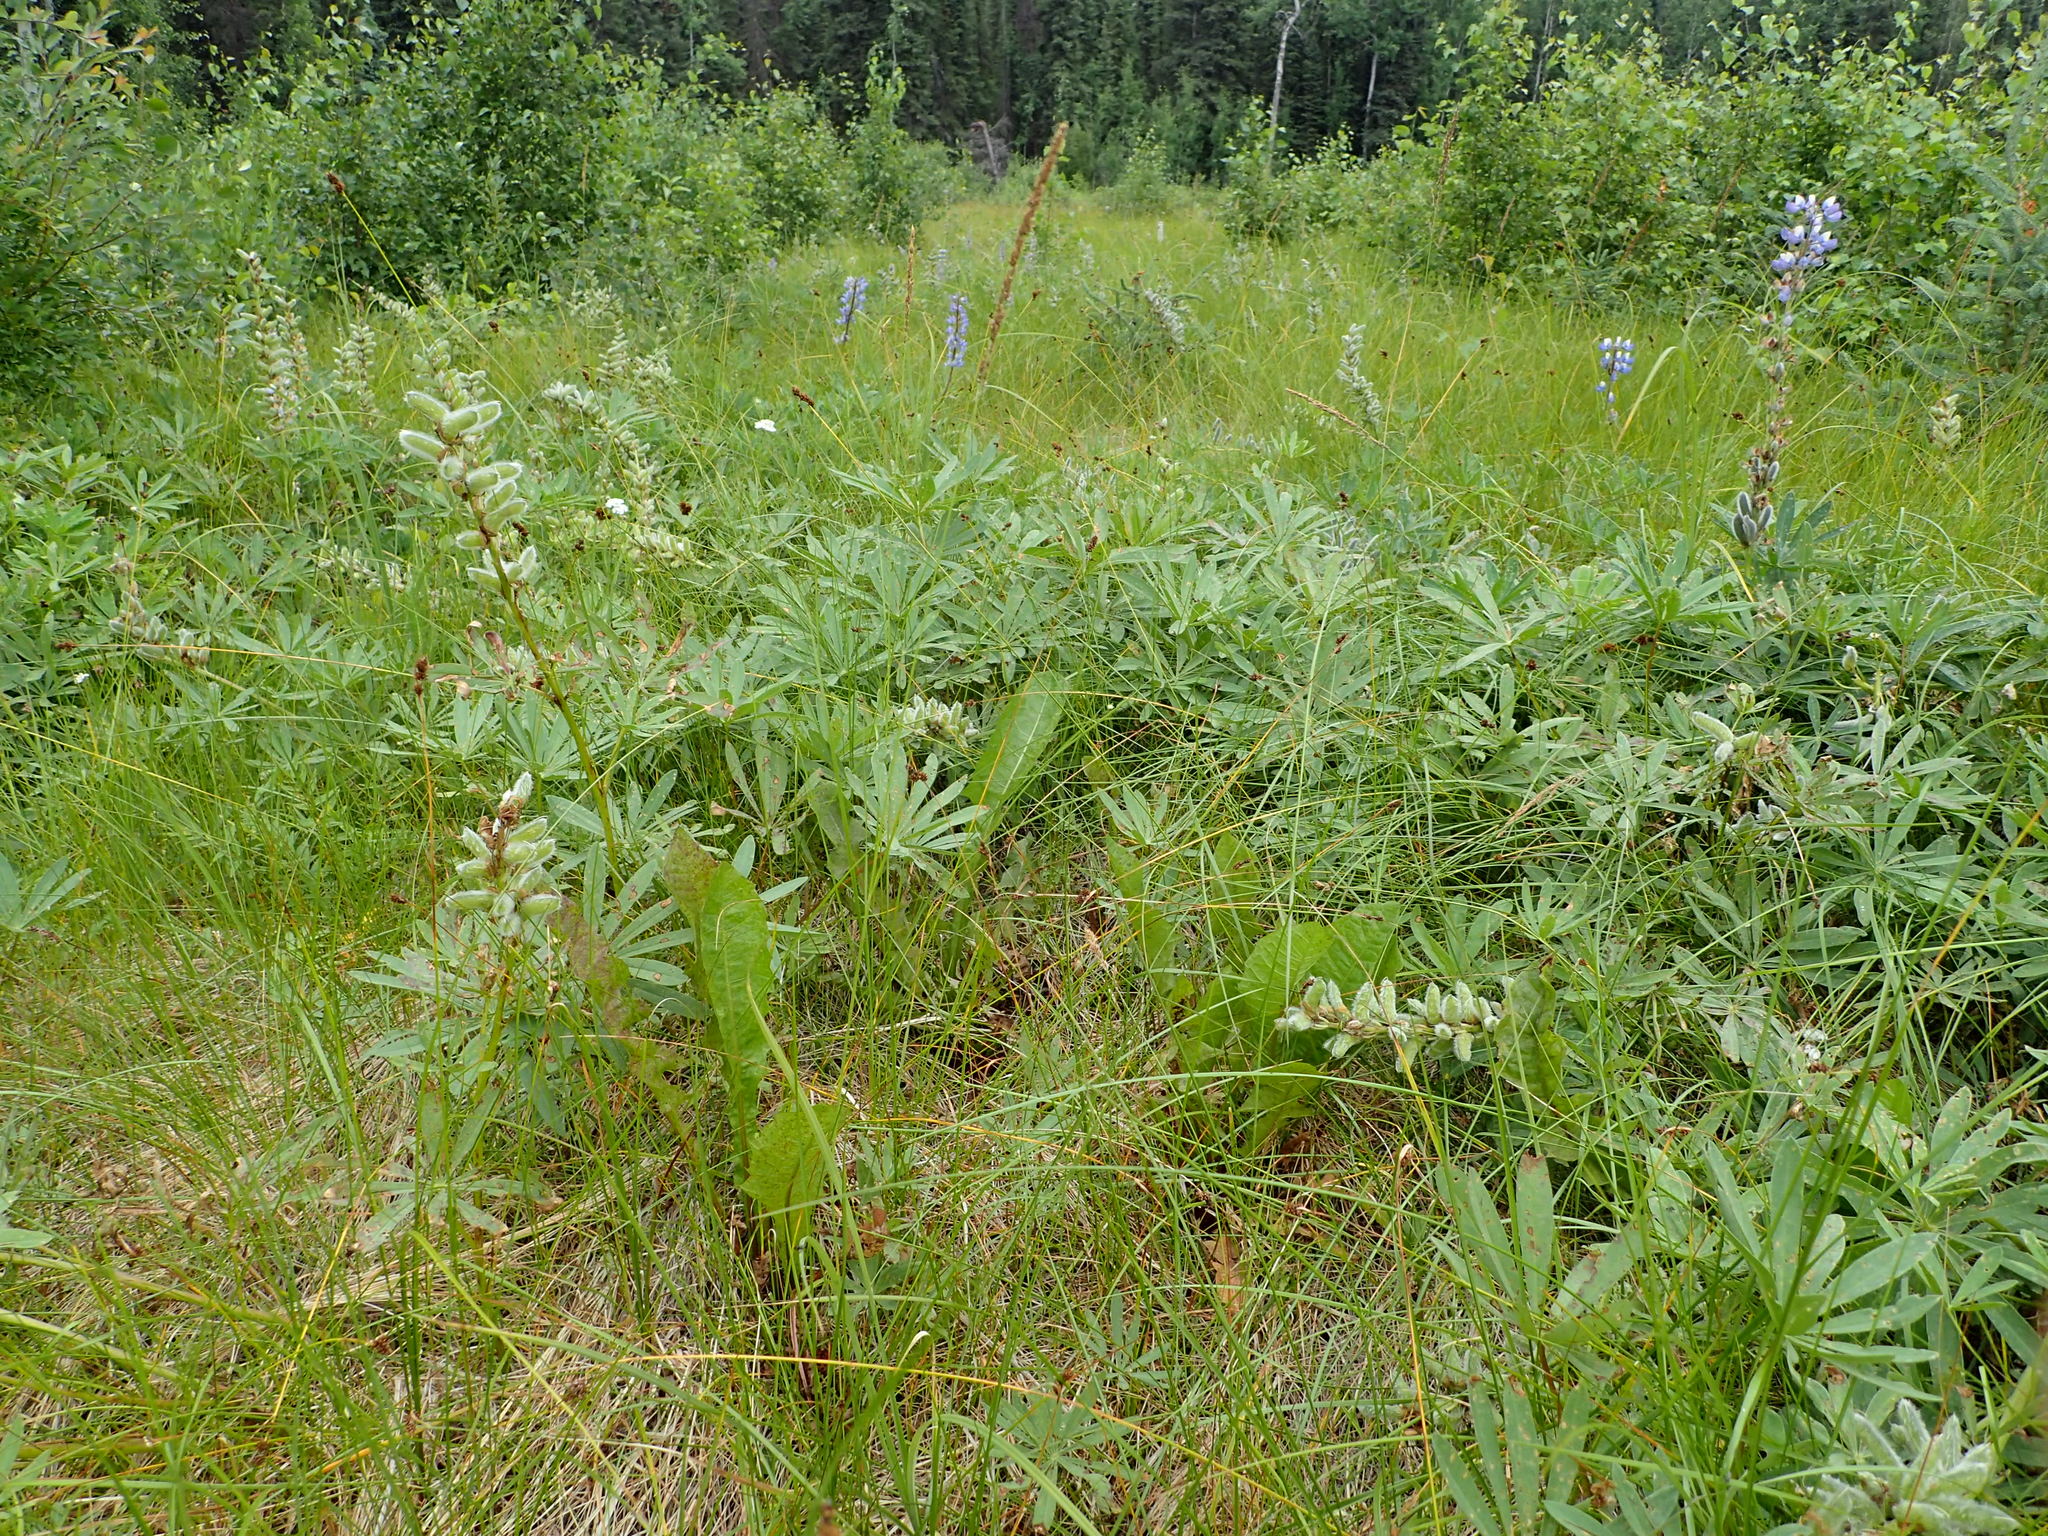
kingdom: Plantae
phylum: Tracheophyta
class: Liliopsida
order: Poales
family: Poaceae
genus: Calamagrostis
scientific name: Calamagrostis stricta
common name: Narrow small-reed
